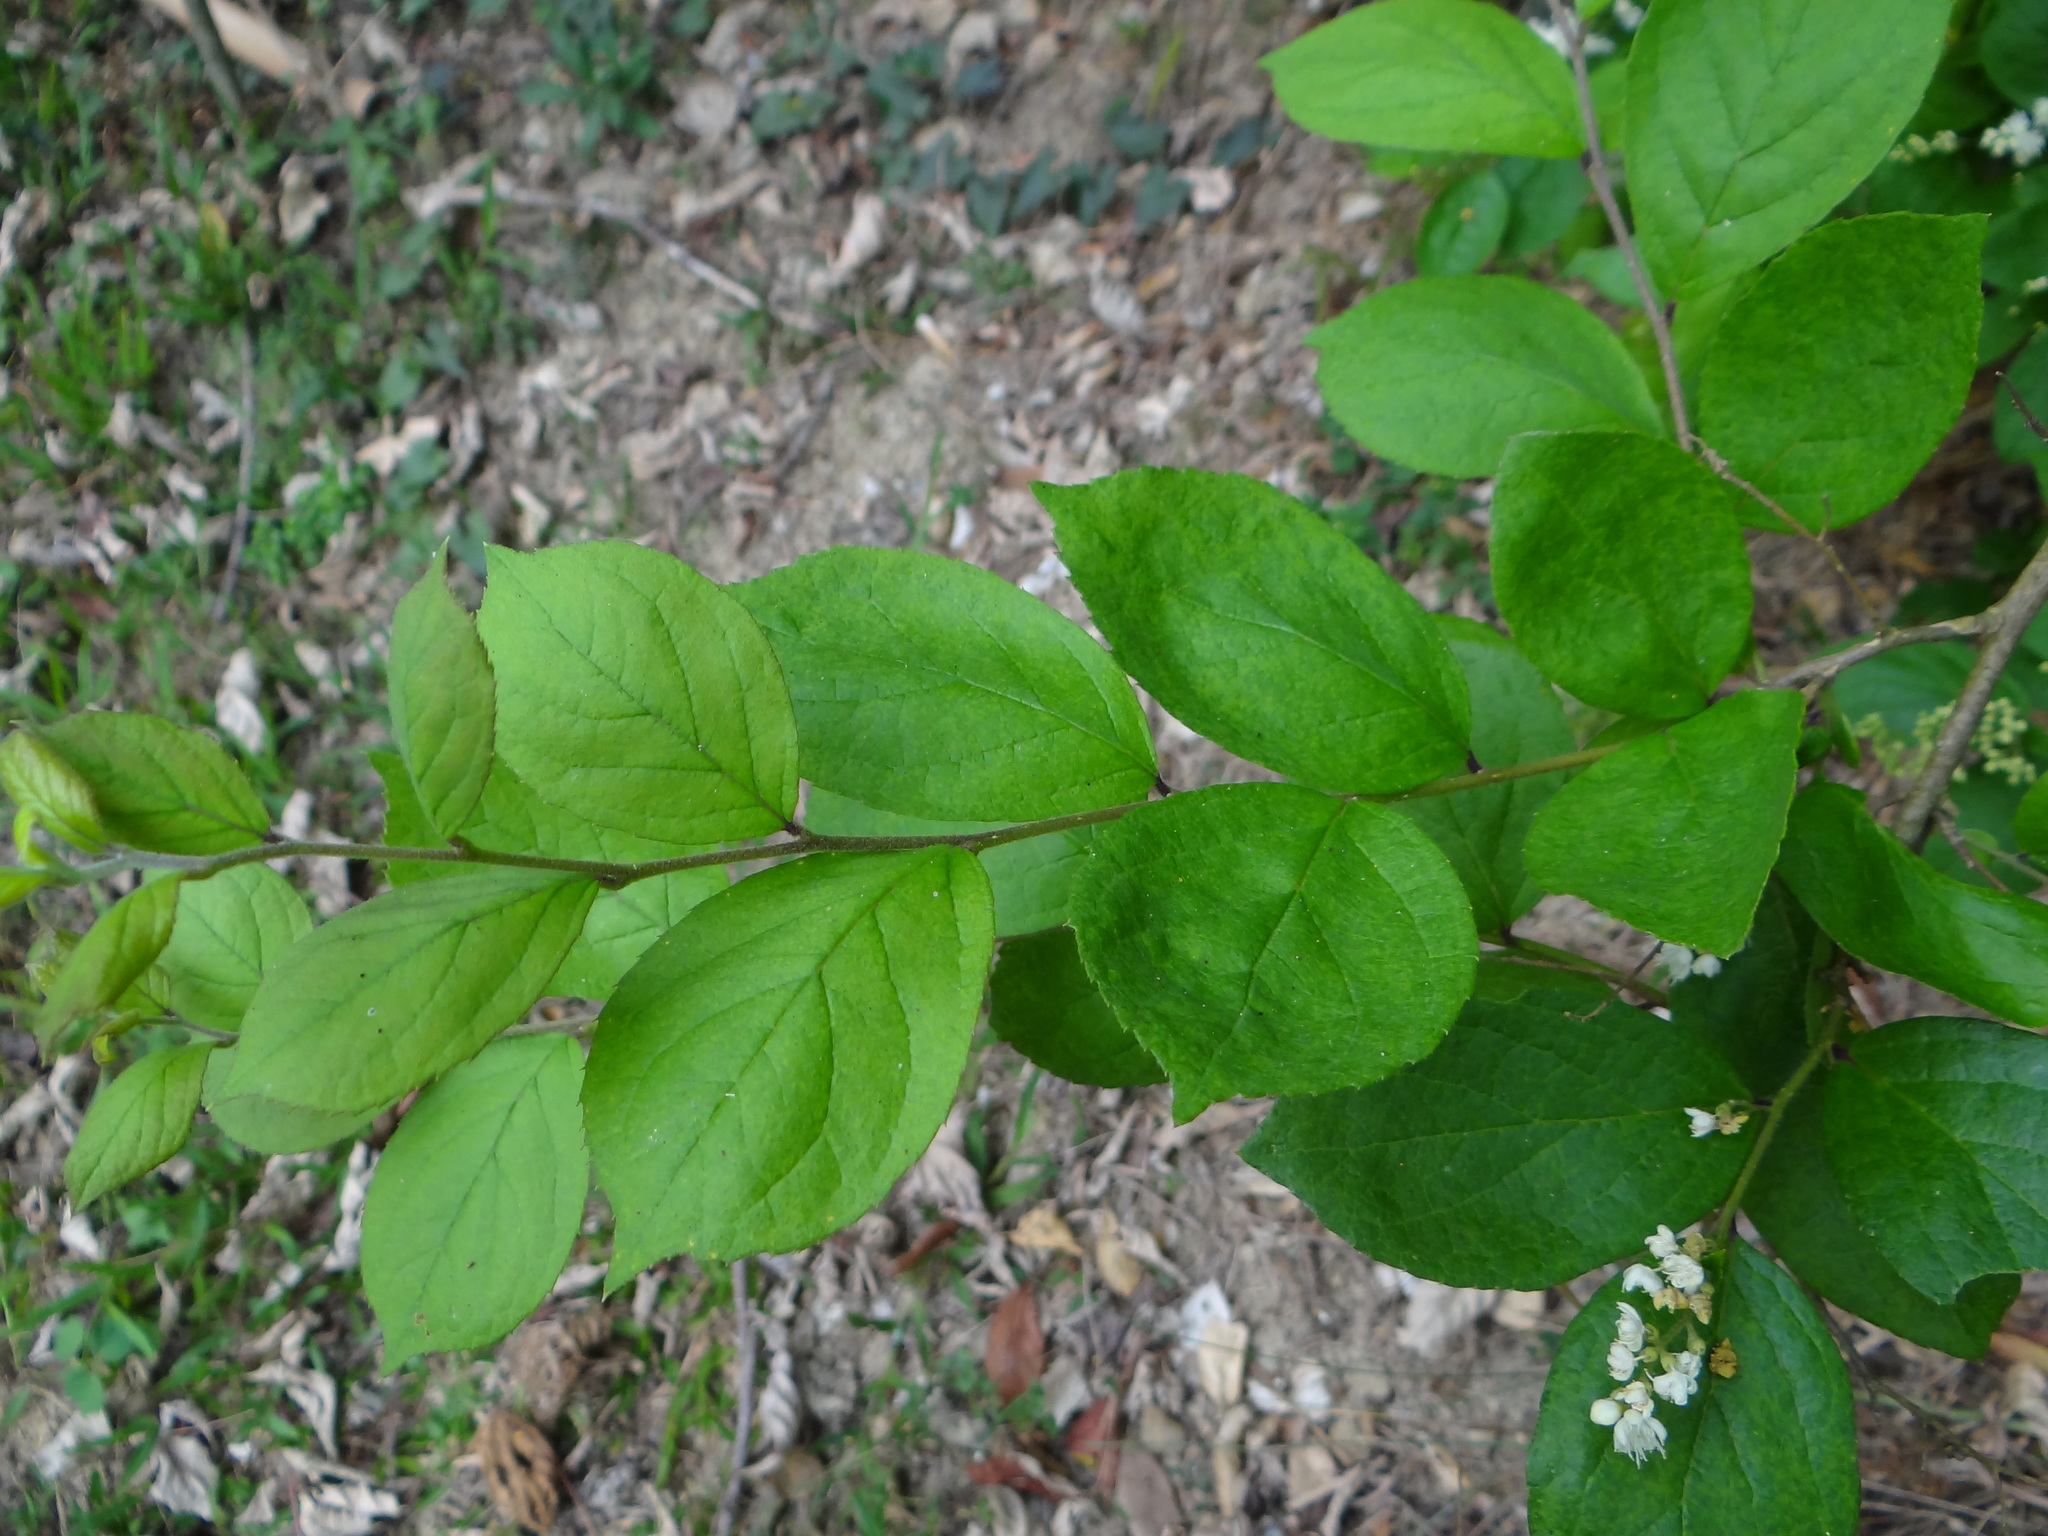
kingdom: Plantae
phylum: Tracheophyta
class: Magnoliopsida
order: Ericales
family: Symplocaceae
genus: Symplocos
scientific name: Symplocos paniculata
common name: Sapphire-berry
